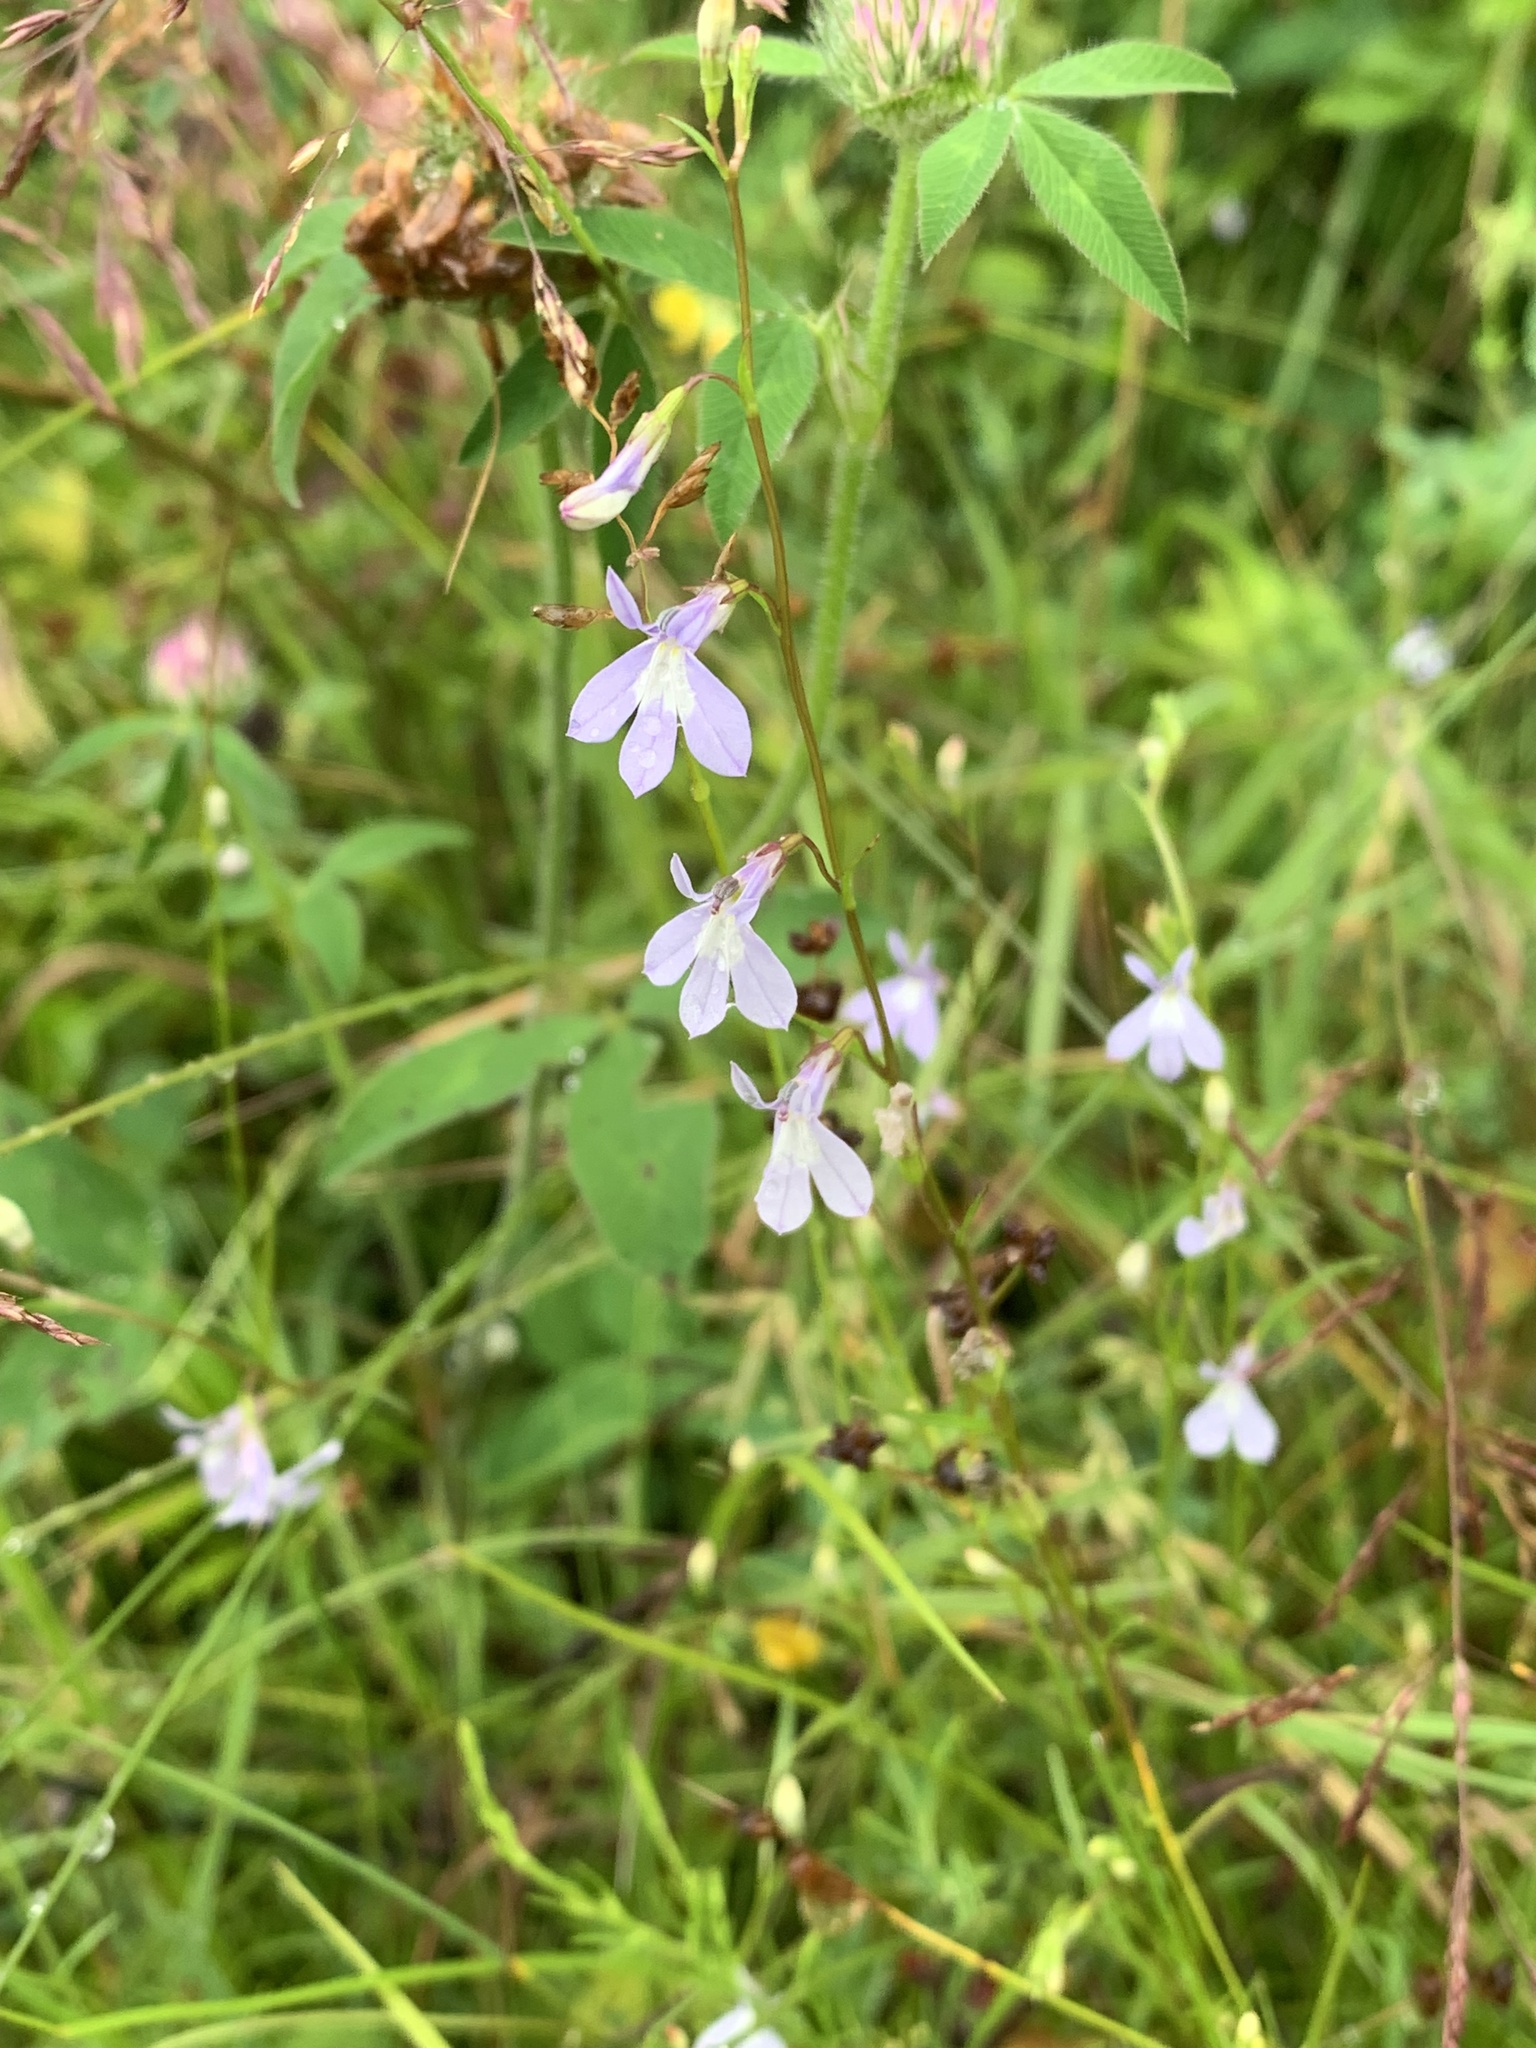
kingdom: Plantae
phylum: Tracheophyta
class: Magnoliopsida
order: Asterales
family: Campanulaceae
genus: Lobelia
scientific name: Lobelia kalmii
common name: Kalm's lobelia
